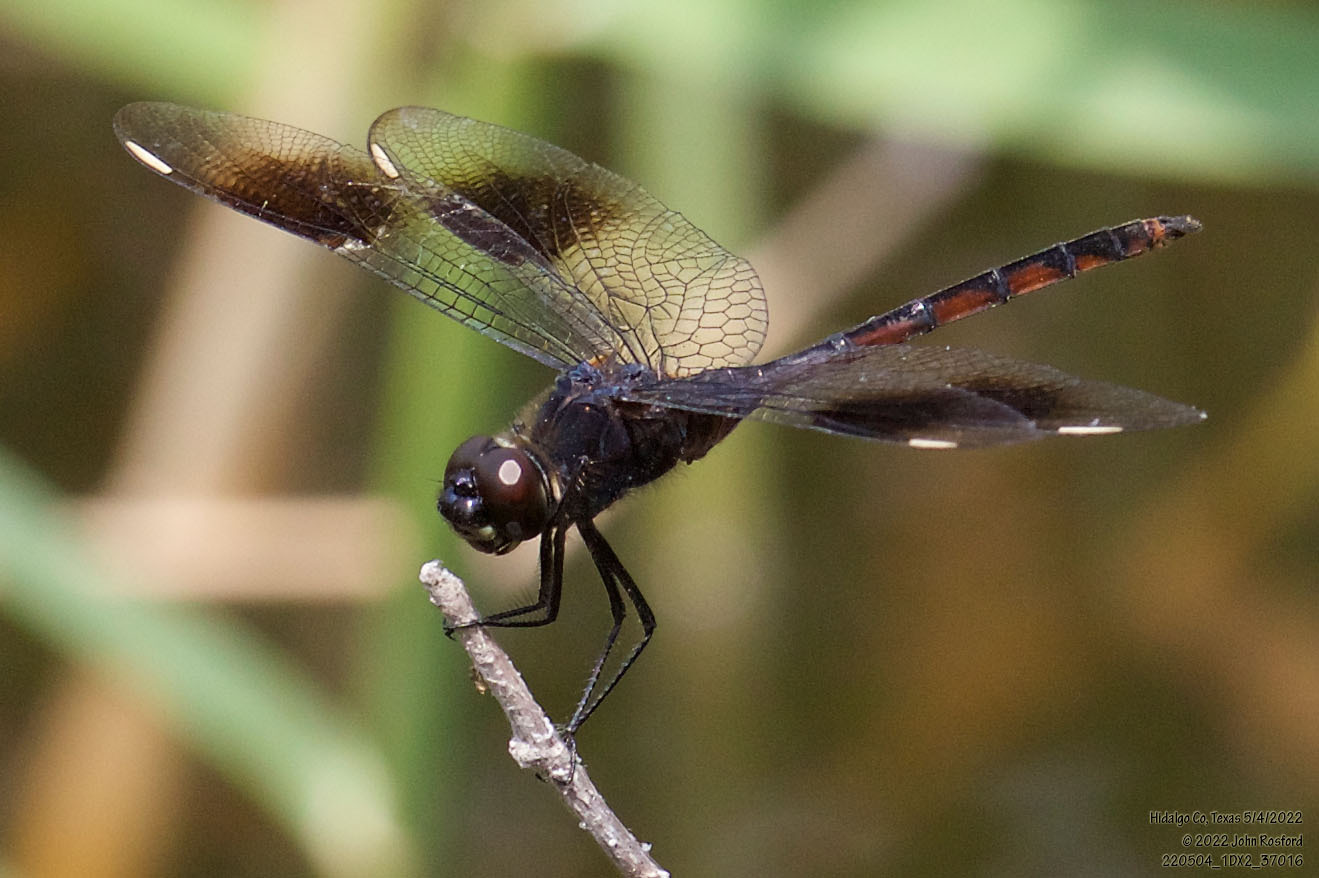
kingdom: Animalia
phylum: Arthropoda
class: Insecta
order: Odonata
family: Libellulidae
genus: Brachymesia
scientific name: Brachymesia gravida
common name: Four-spotted pennant
